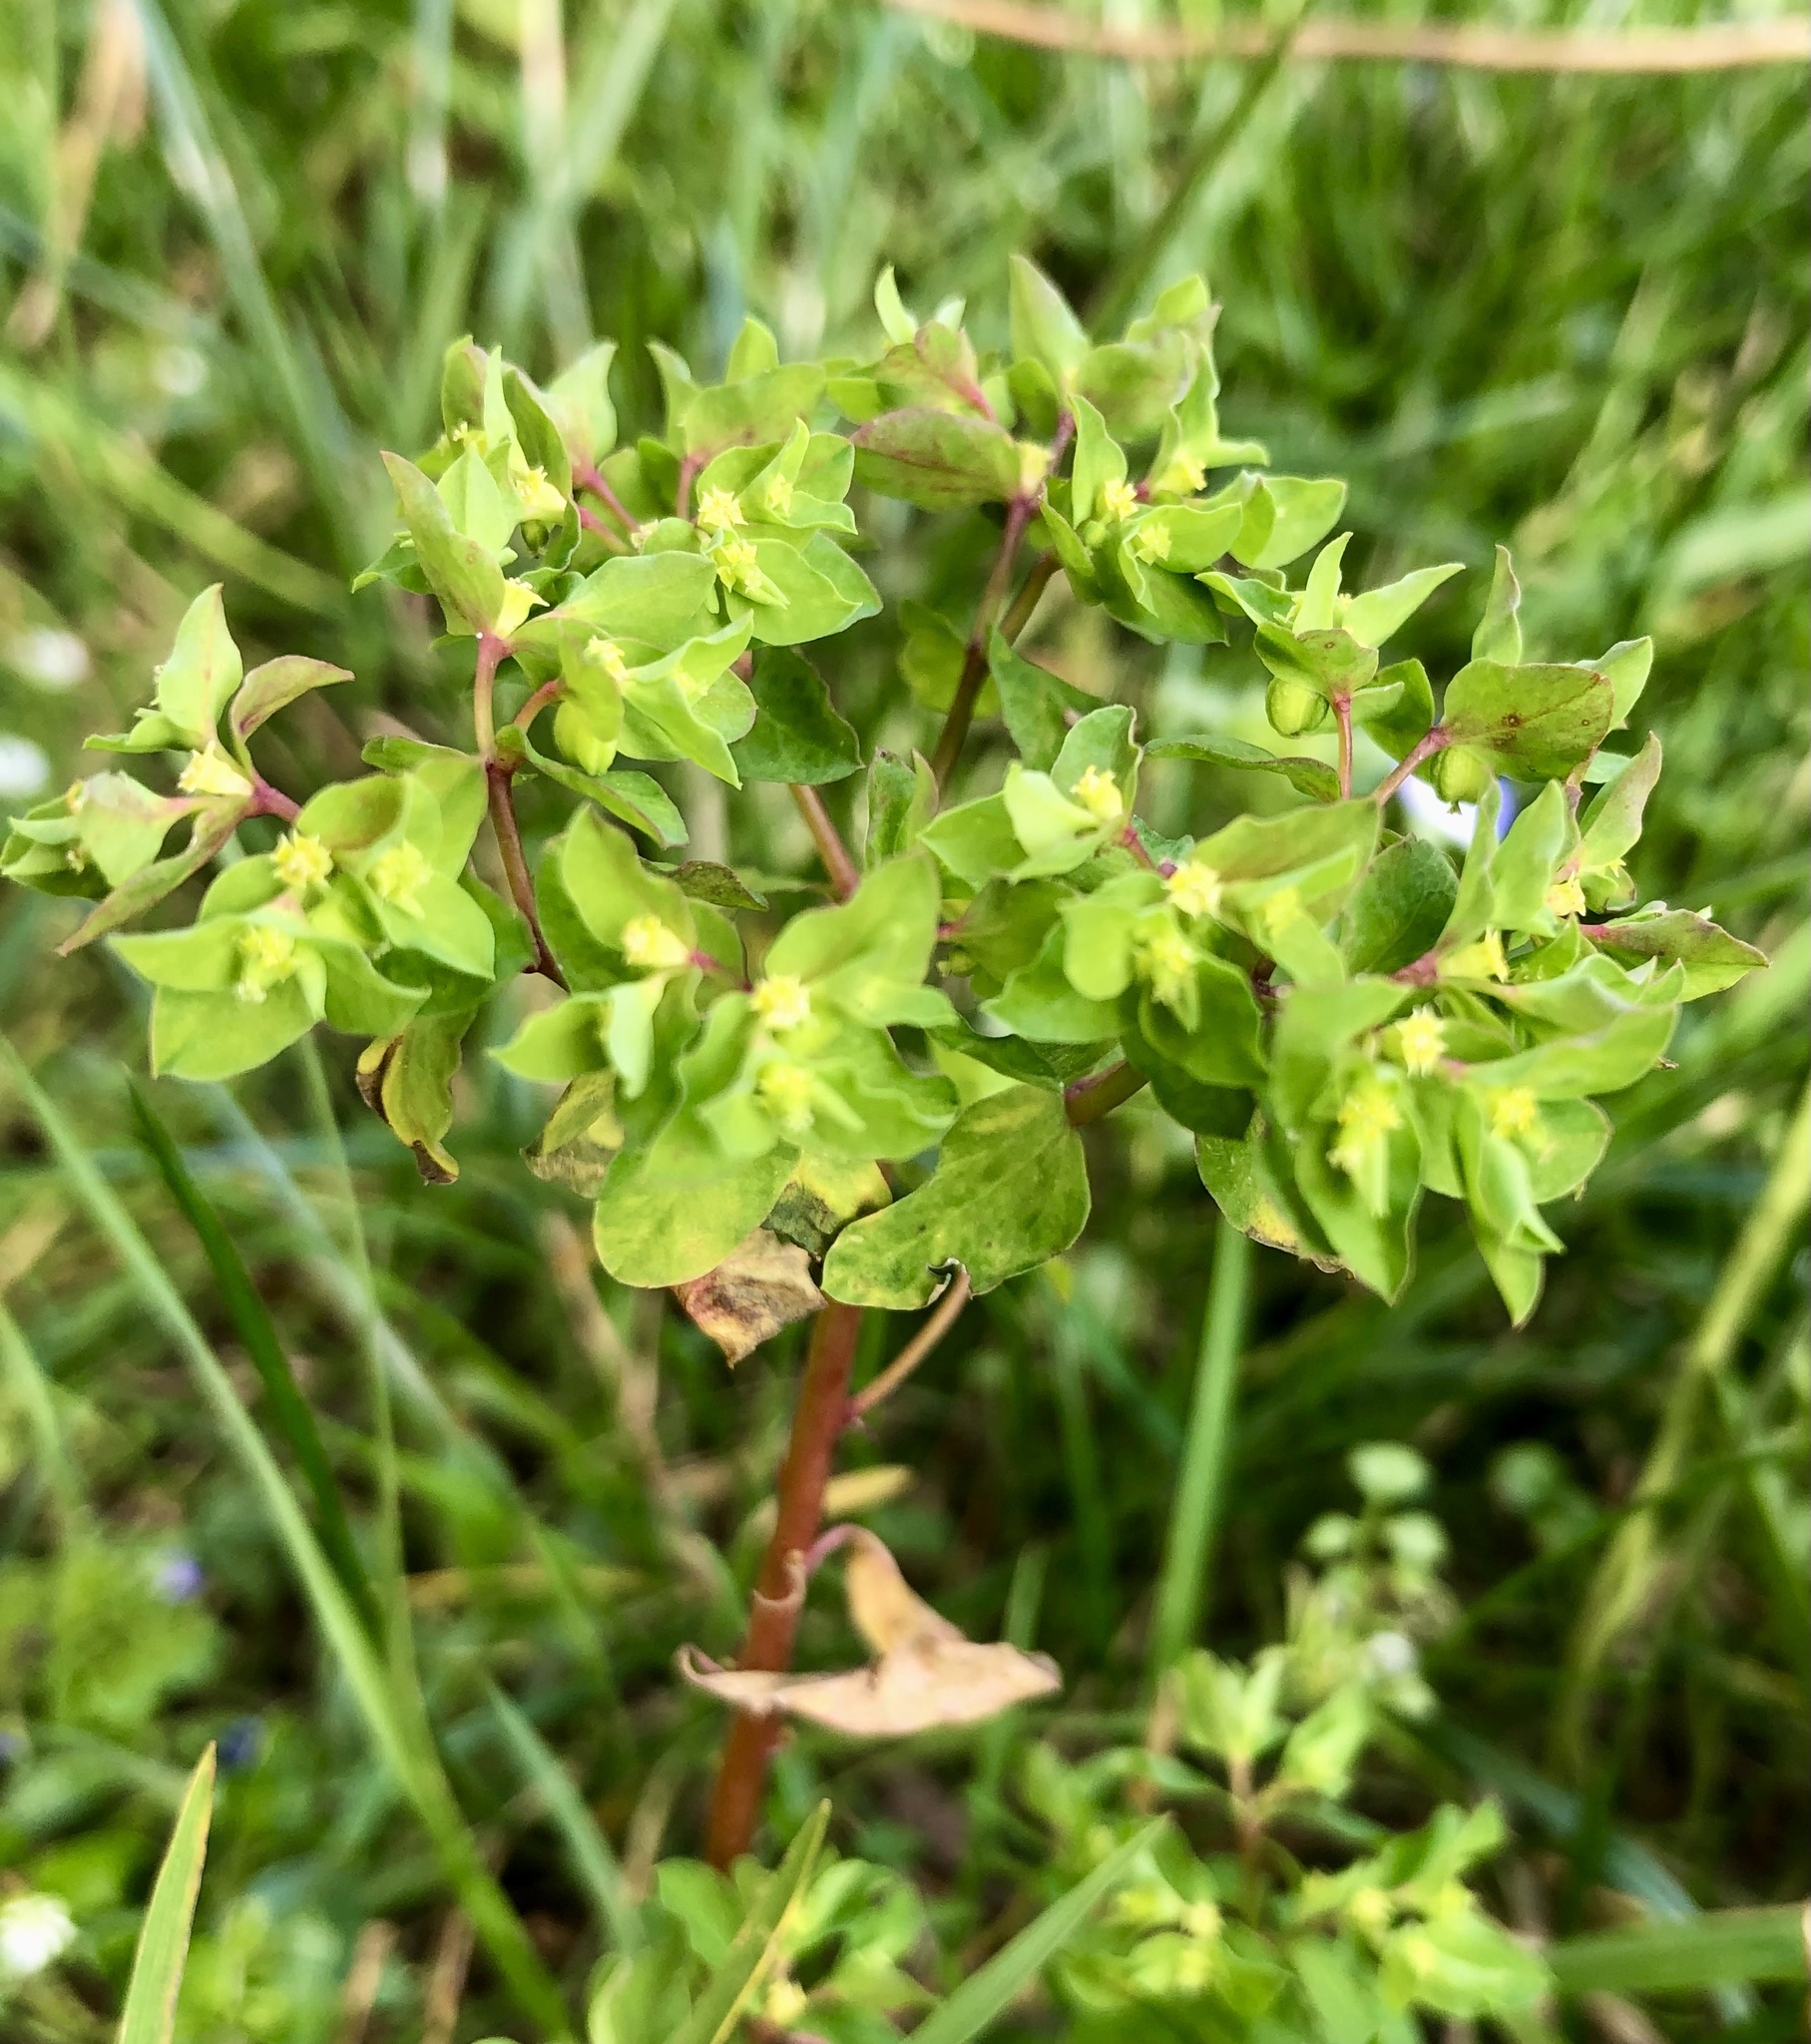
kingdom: Plantae
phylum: Tracheophyta
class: Magnoliopsida
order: Malpighiales
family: Euphorbiaceae
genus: Euphorbia
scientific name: Euphorbia peplus
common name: Petty spurge
